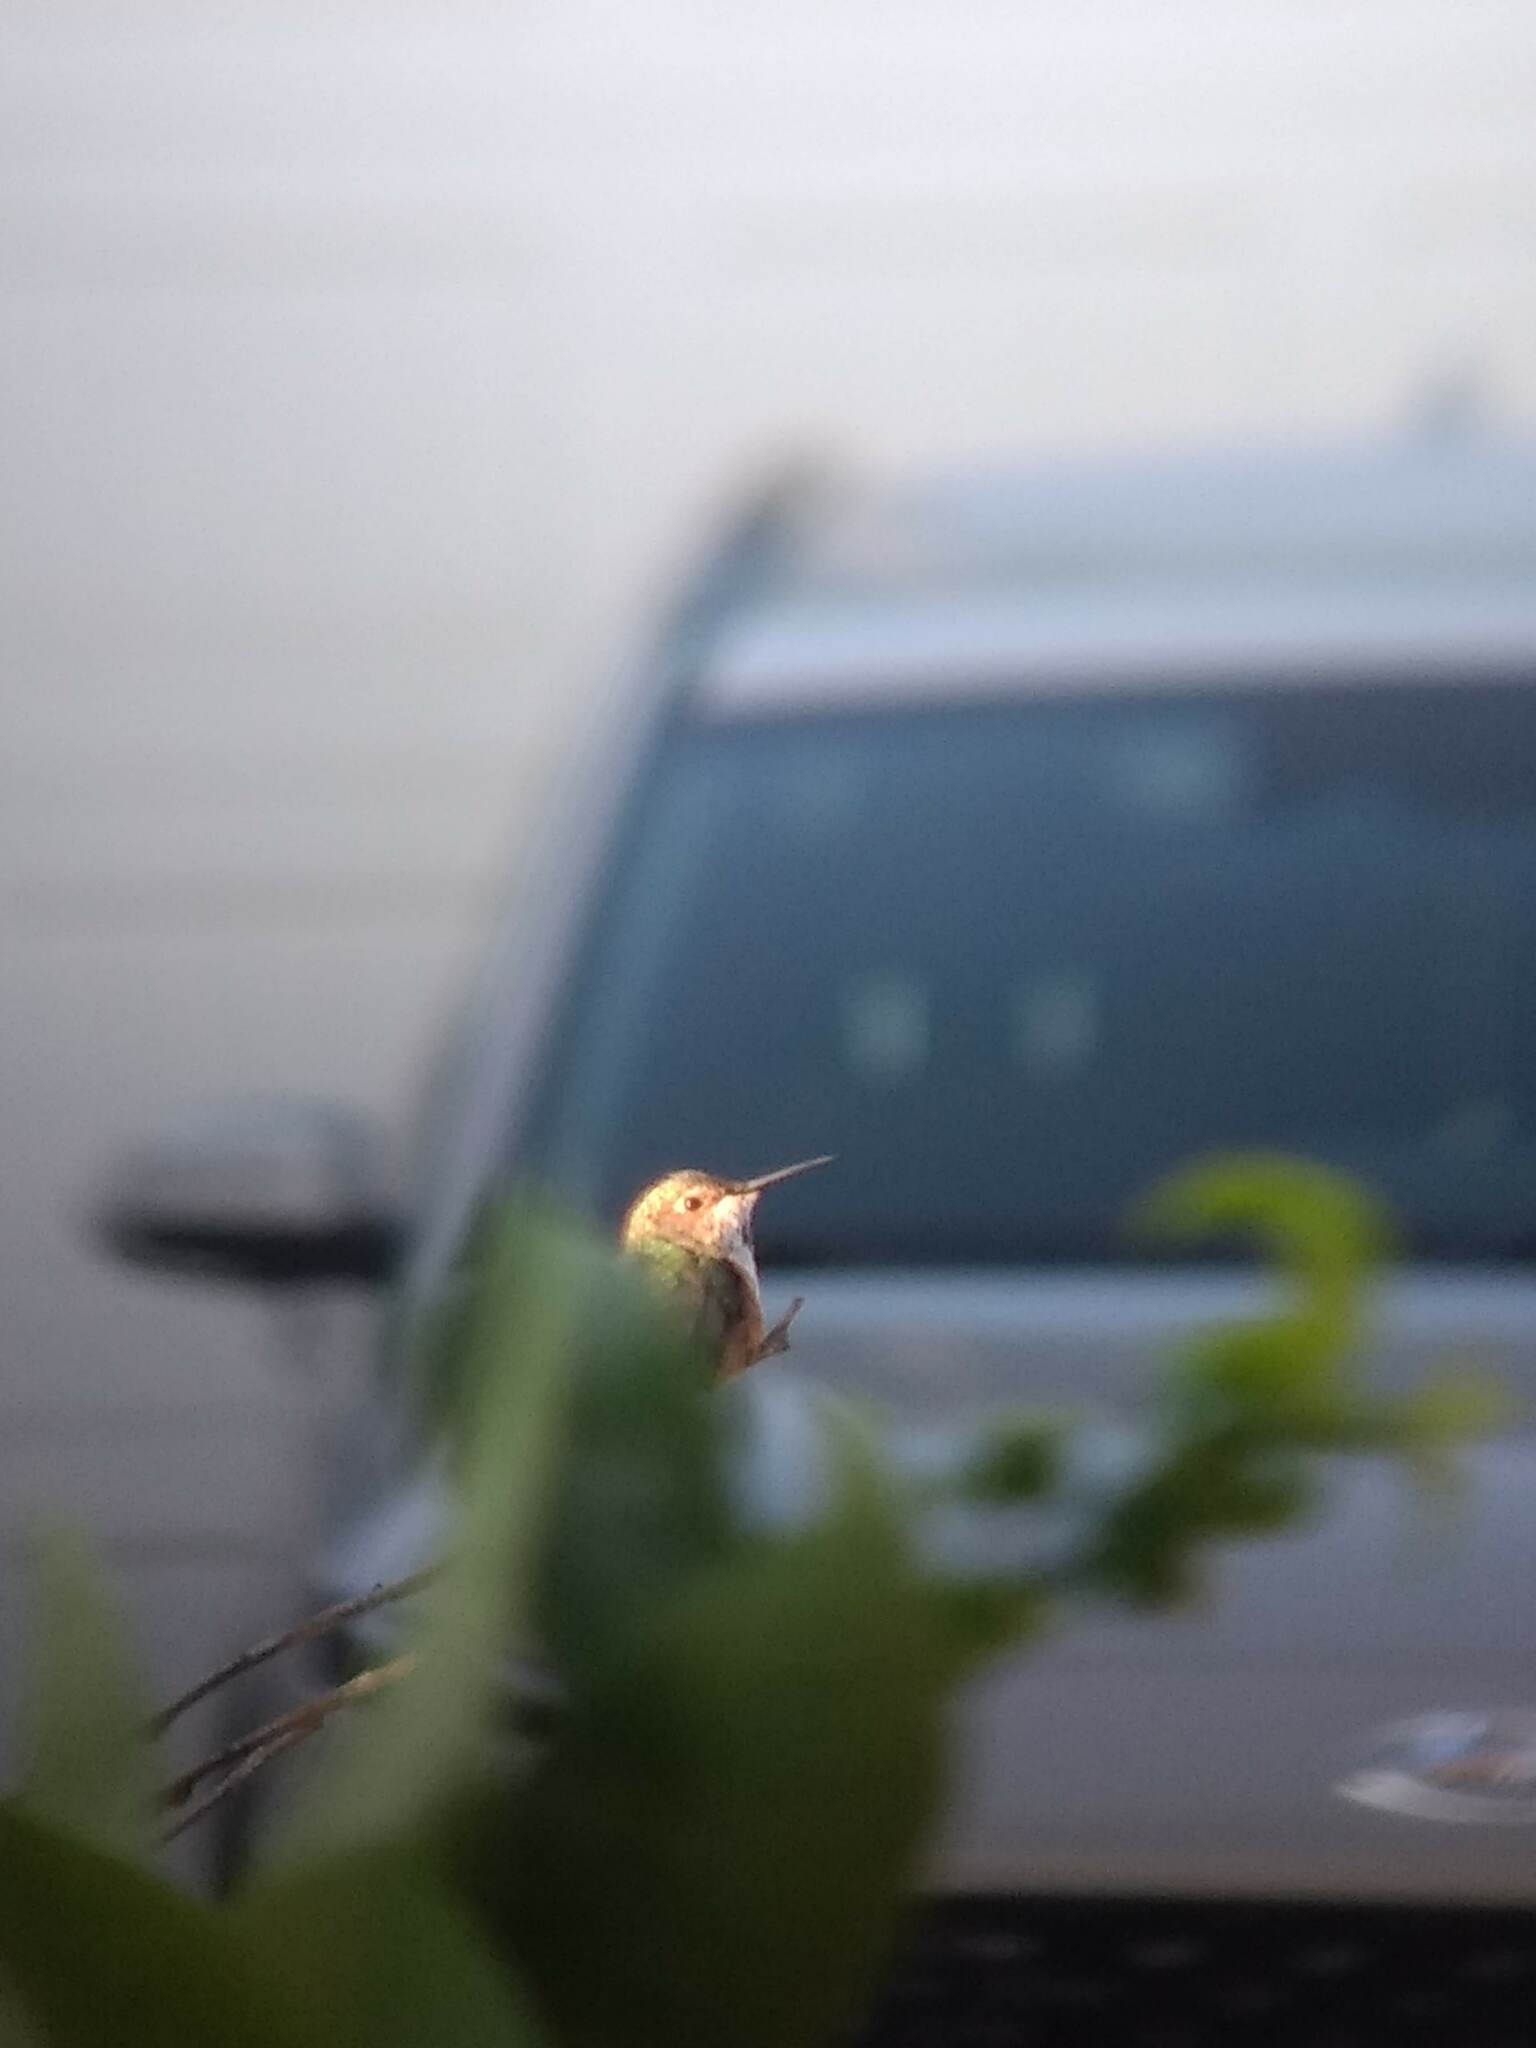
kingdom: Animalia
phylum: Chordata
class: Aves
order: Apodiformes
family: Trochilidae
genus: Selasphorus
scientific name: Selasphorus sasin
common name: Allen's hummingbird
